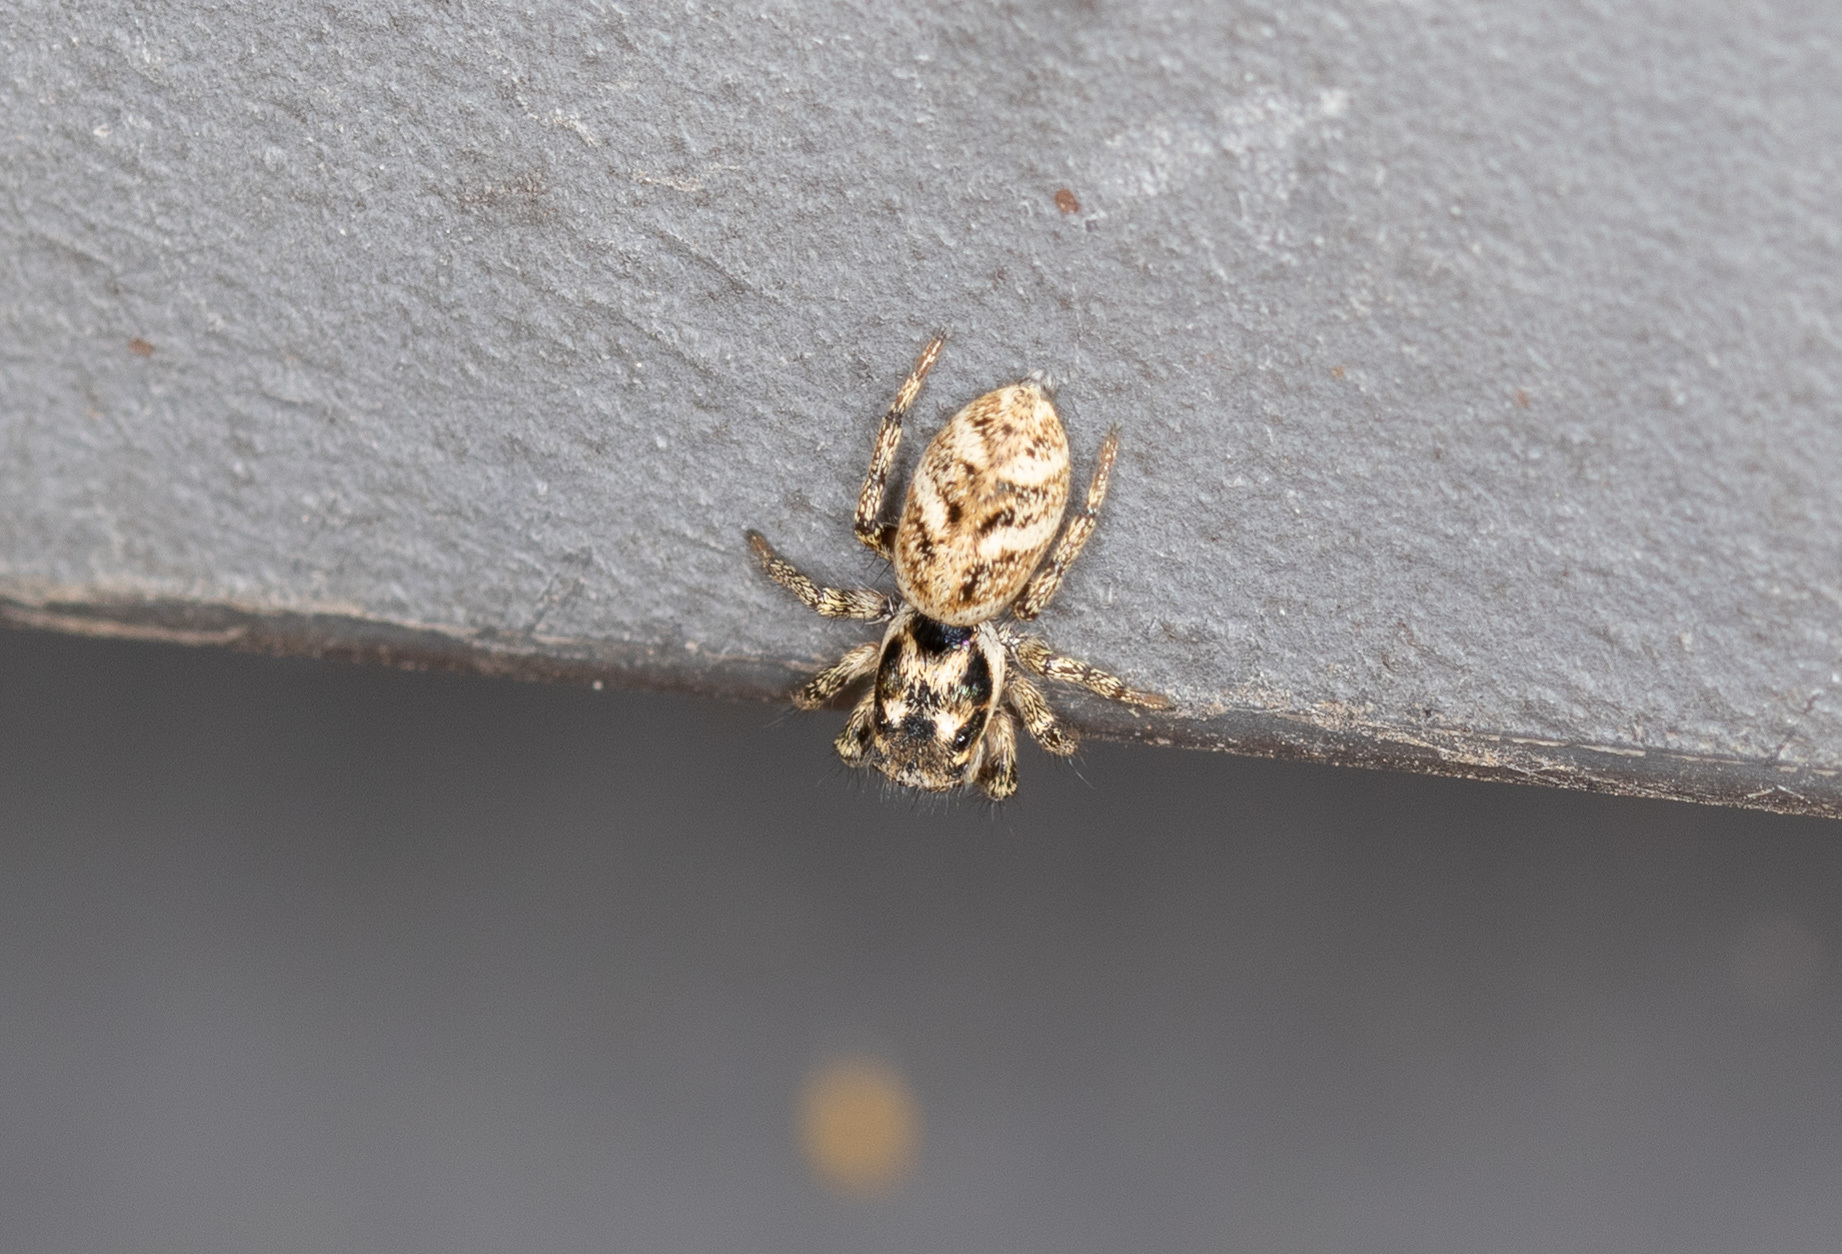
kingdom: Animalia
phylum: Arthropoda
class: Arachnida
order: Araneae
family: Salticidae
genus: Salticus
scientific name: Salticus scenicus
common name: Zebra jumper
